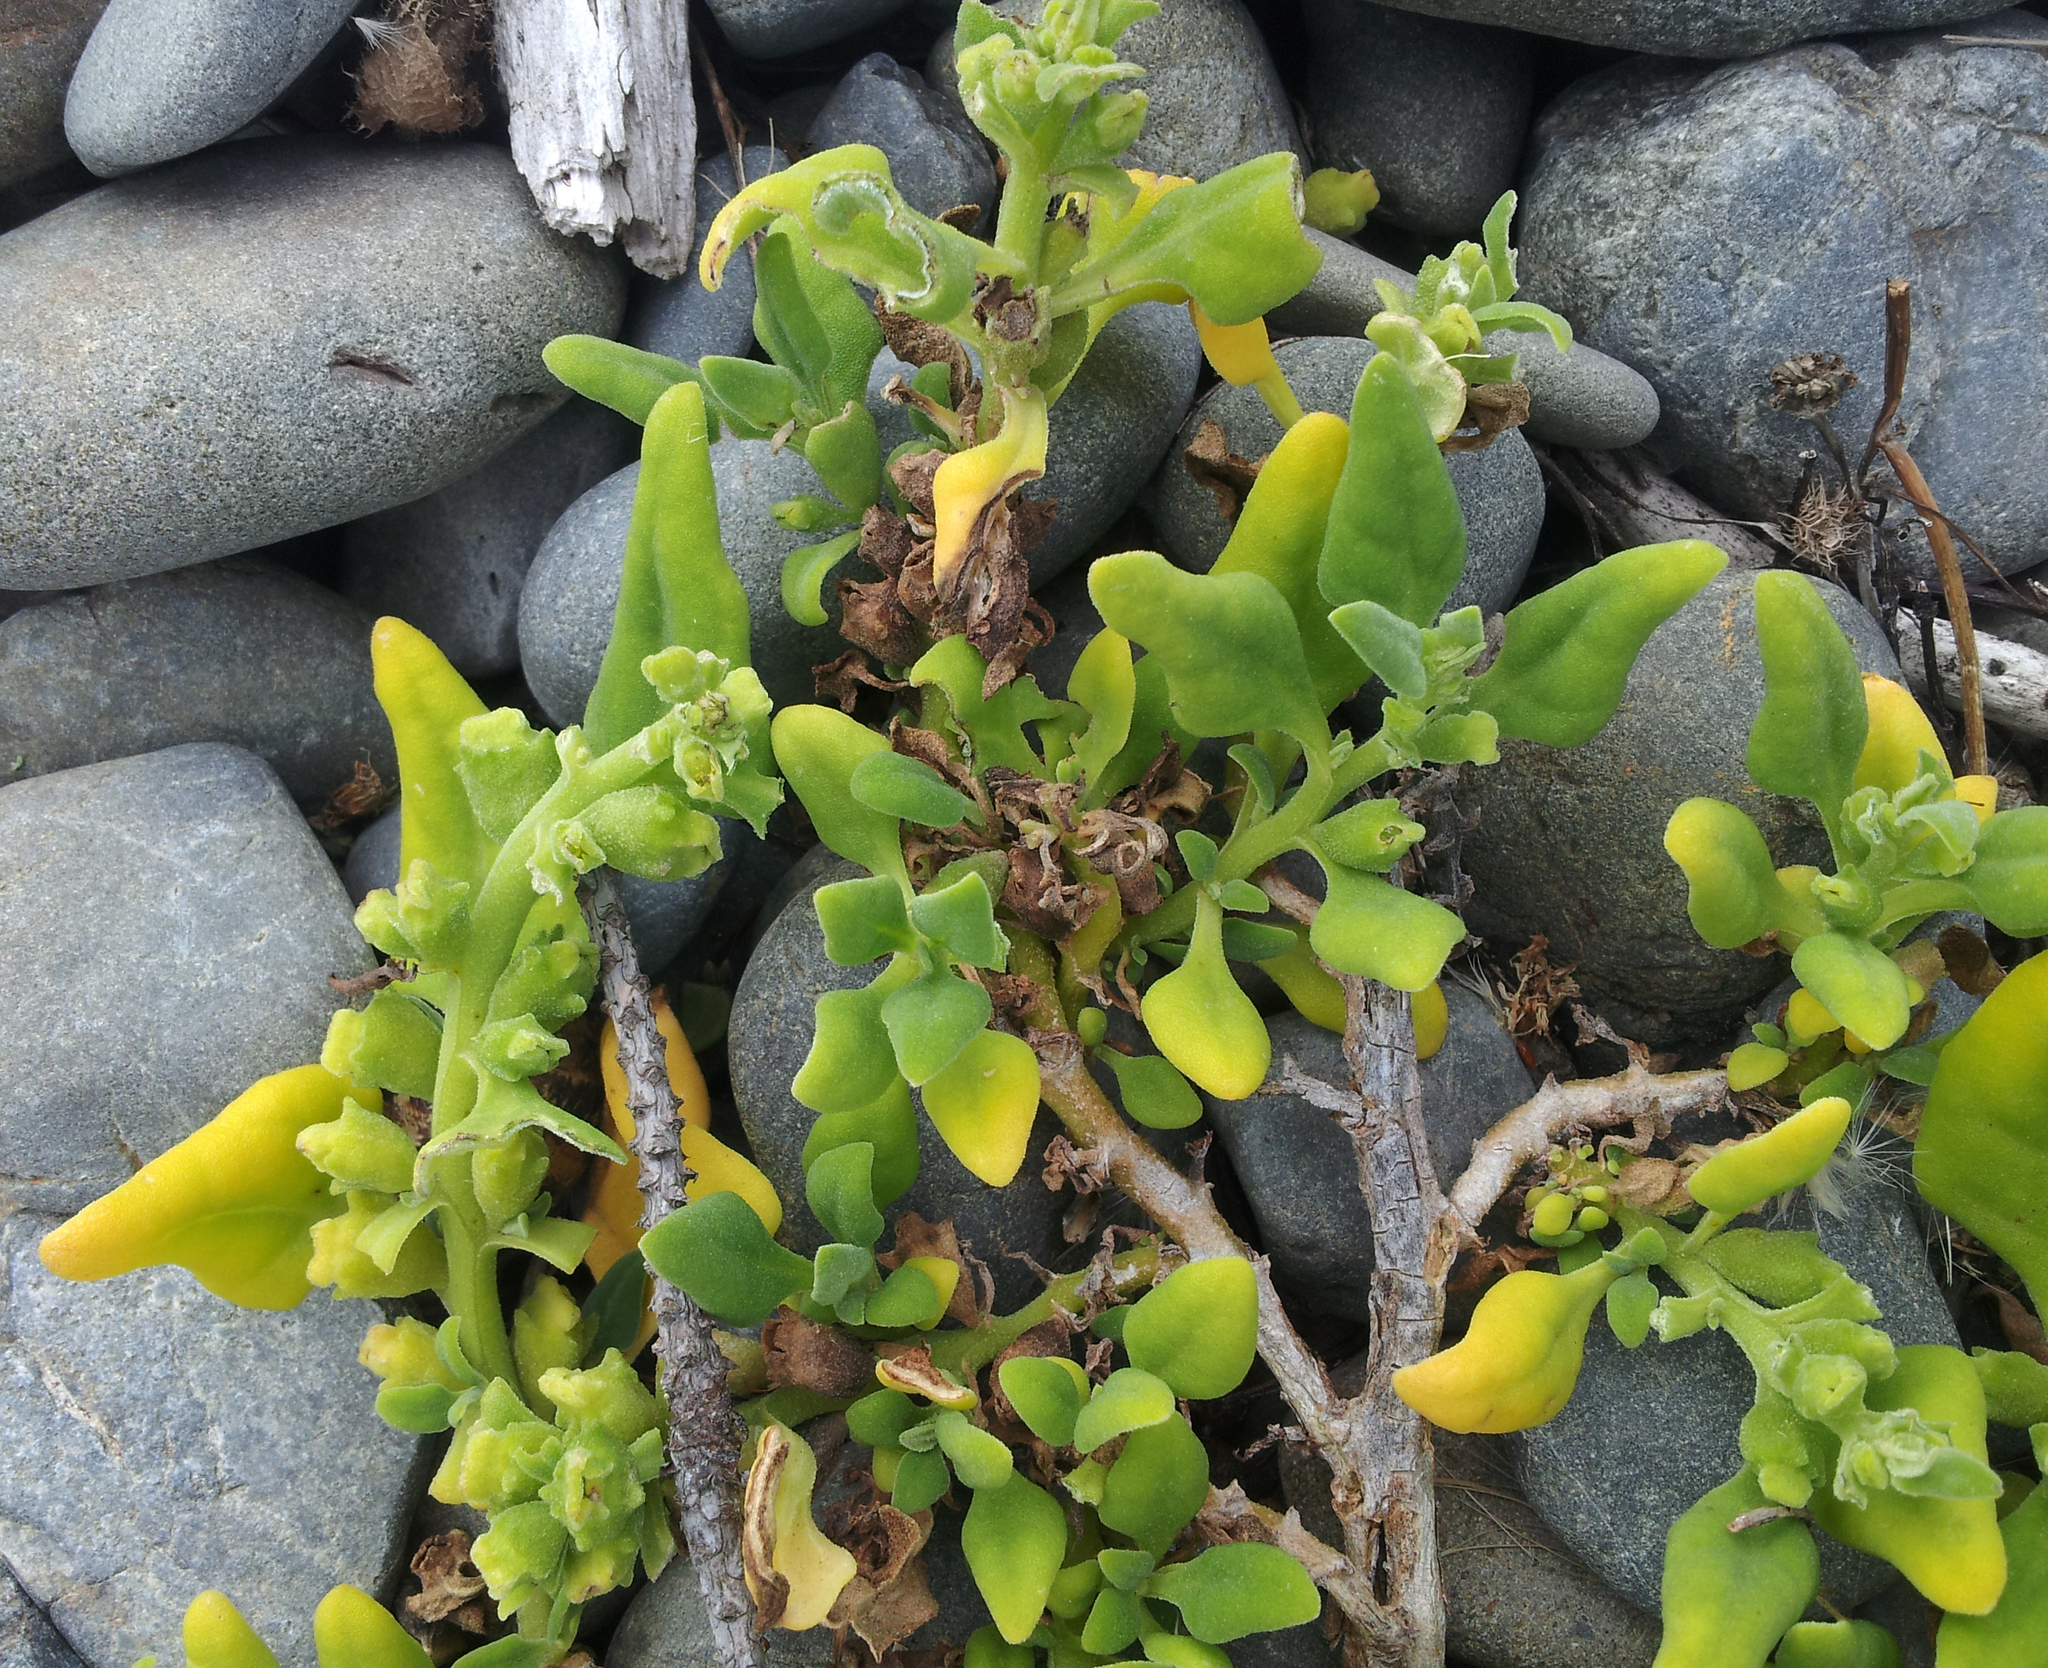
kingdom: Plantae
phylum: Tracheophyta
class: Magnoliopsida
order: Caryophyllales
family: Aizoaceae
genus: Tetragonia
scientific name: Tetragonia tetragonoides
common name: New zealand-spinach
